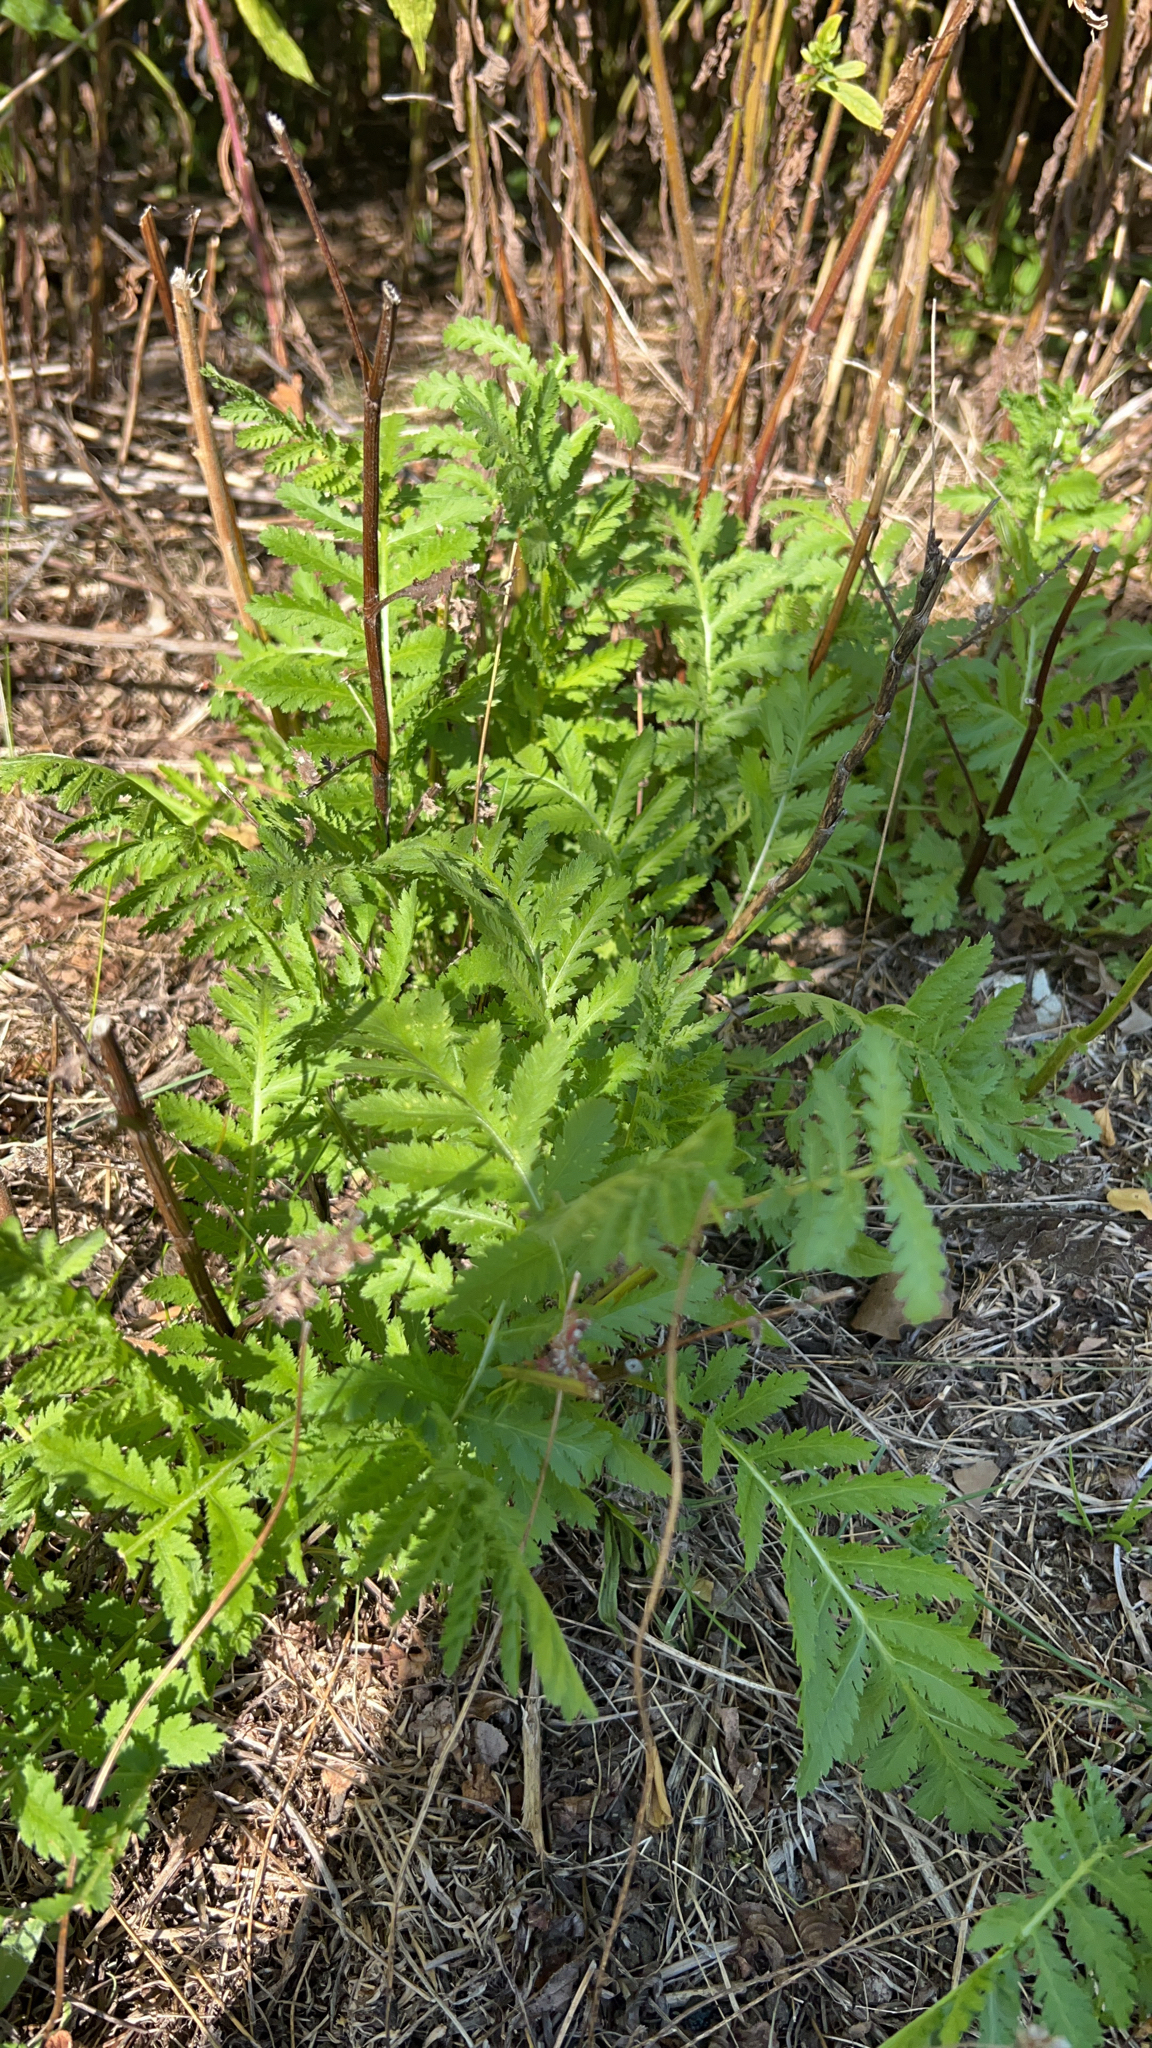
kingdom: Plantae
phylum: Tracheophyta
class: Magnoliopsida
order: Asterales
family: Asteraceae
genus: Tanacetum
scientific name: Tanacetum vulgare
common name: Common tansy
